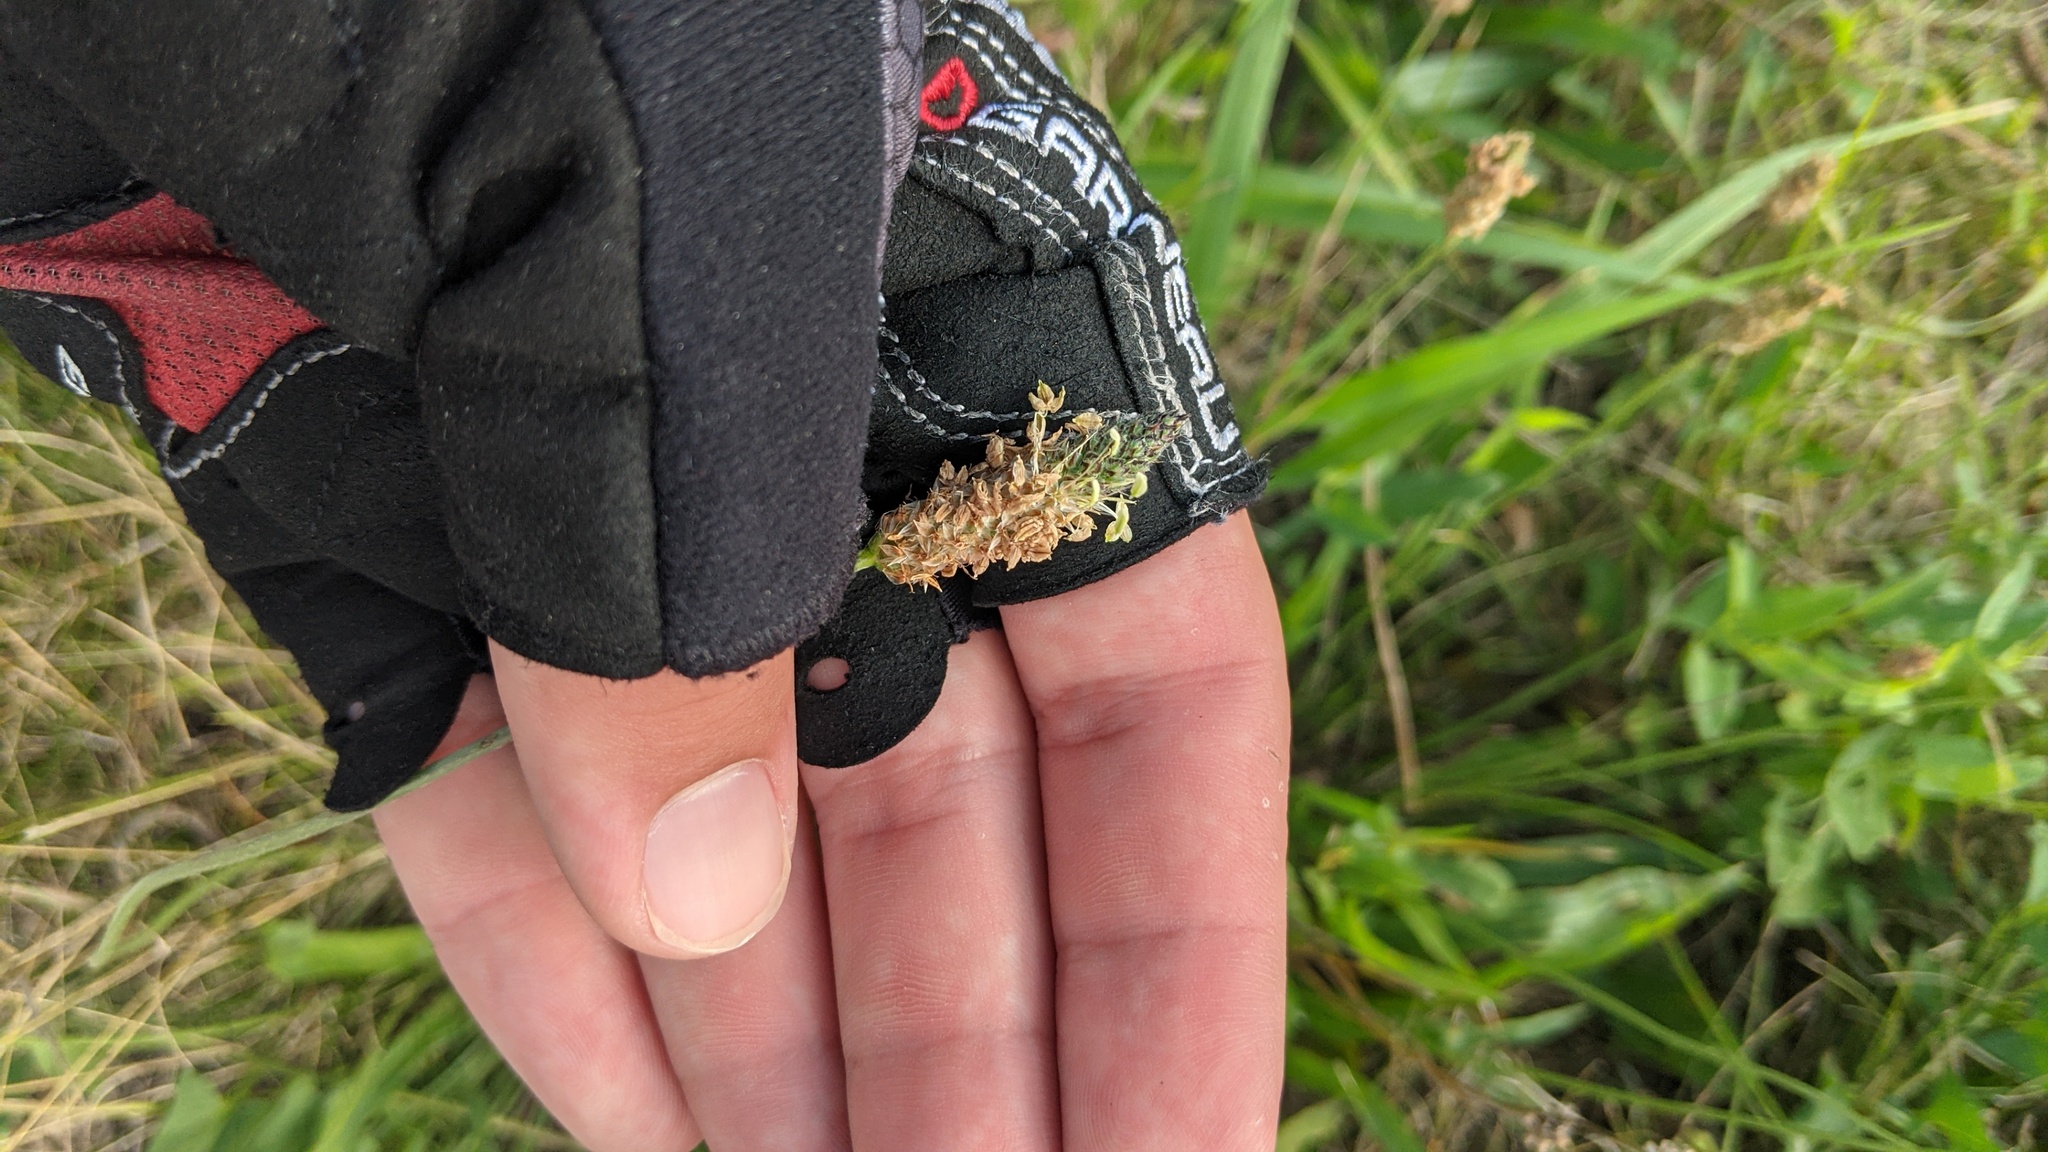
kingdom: Plantae
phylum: Tracheophyta
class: Magnoliopsida
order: Lamiales
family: Plantaginaceae
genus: Plantago
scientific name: Plantago lanceolata
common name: Ribwort plantain
